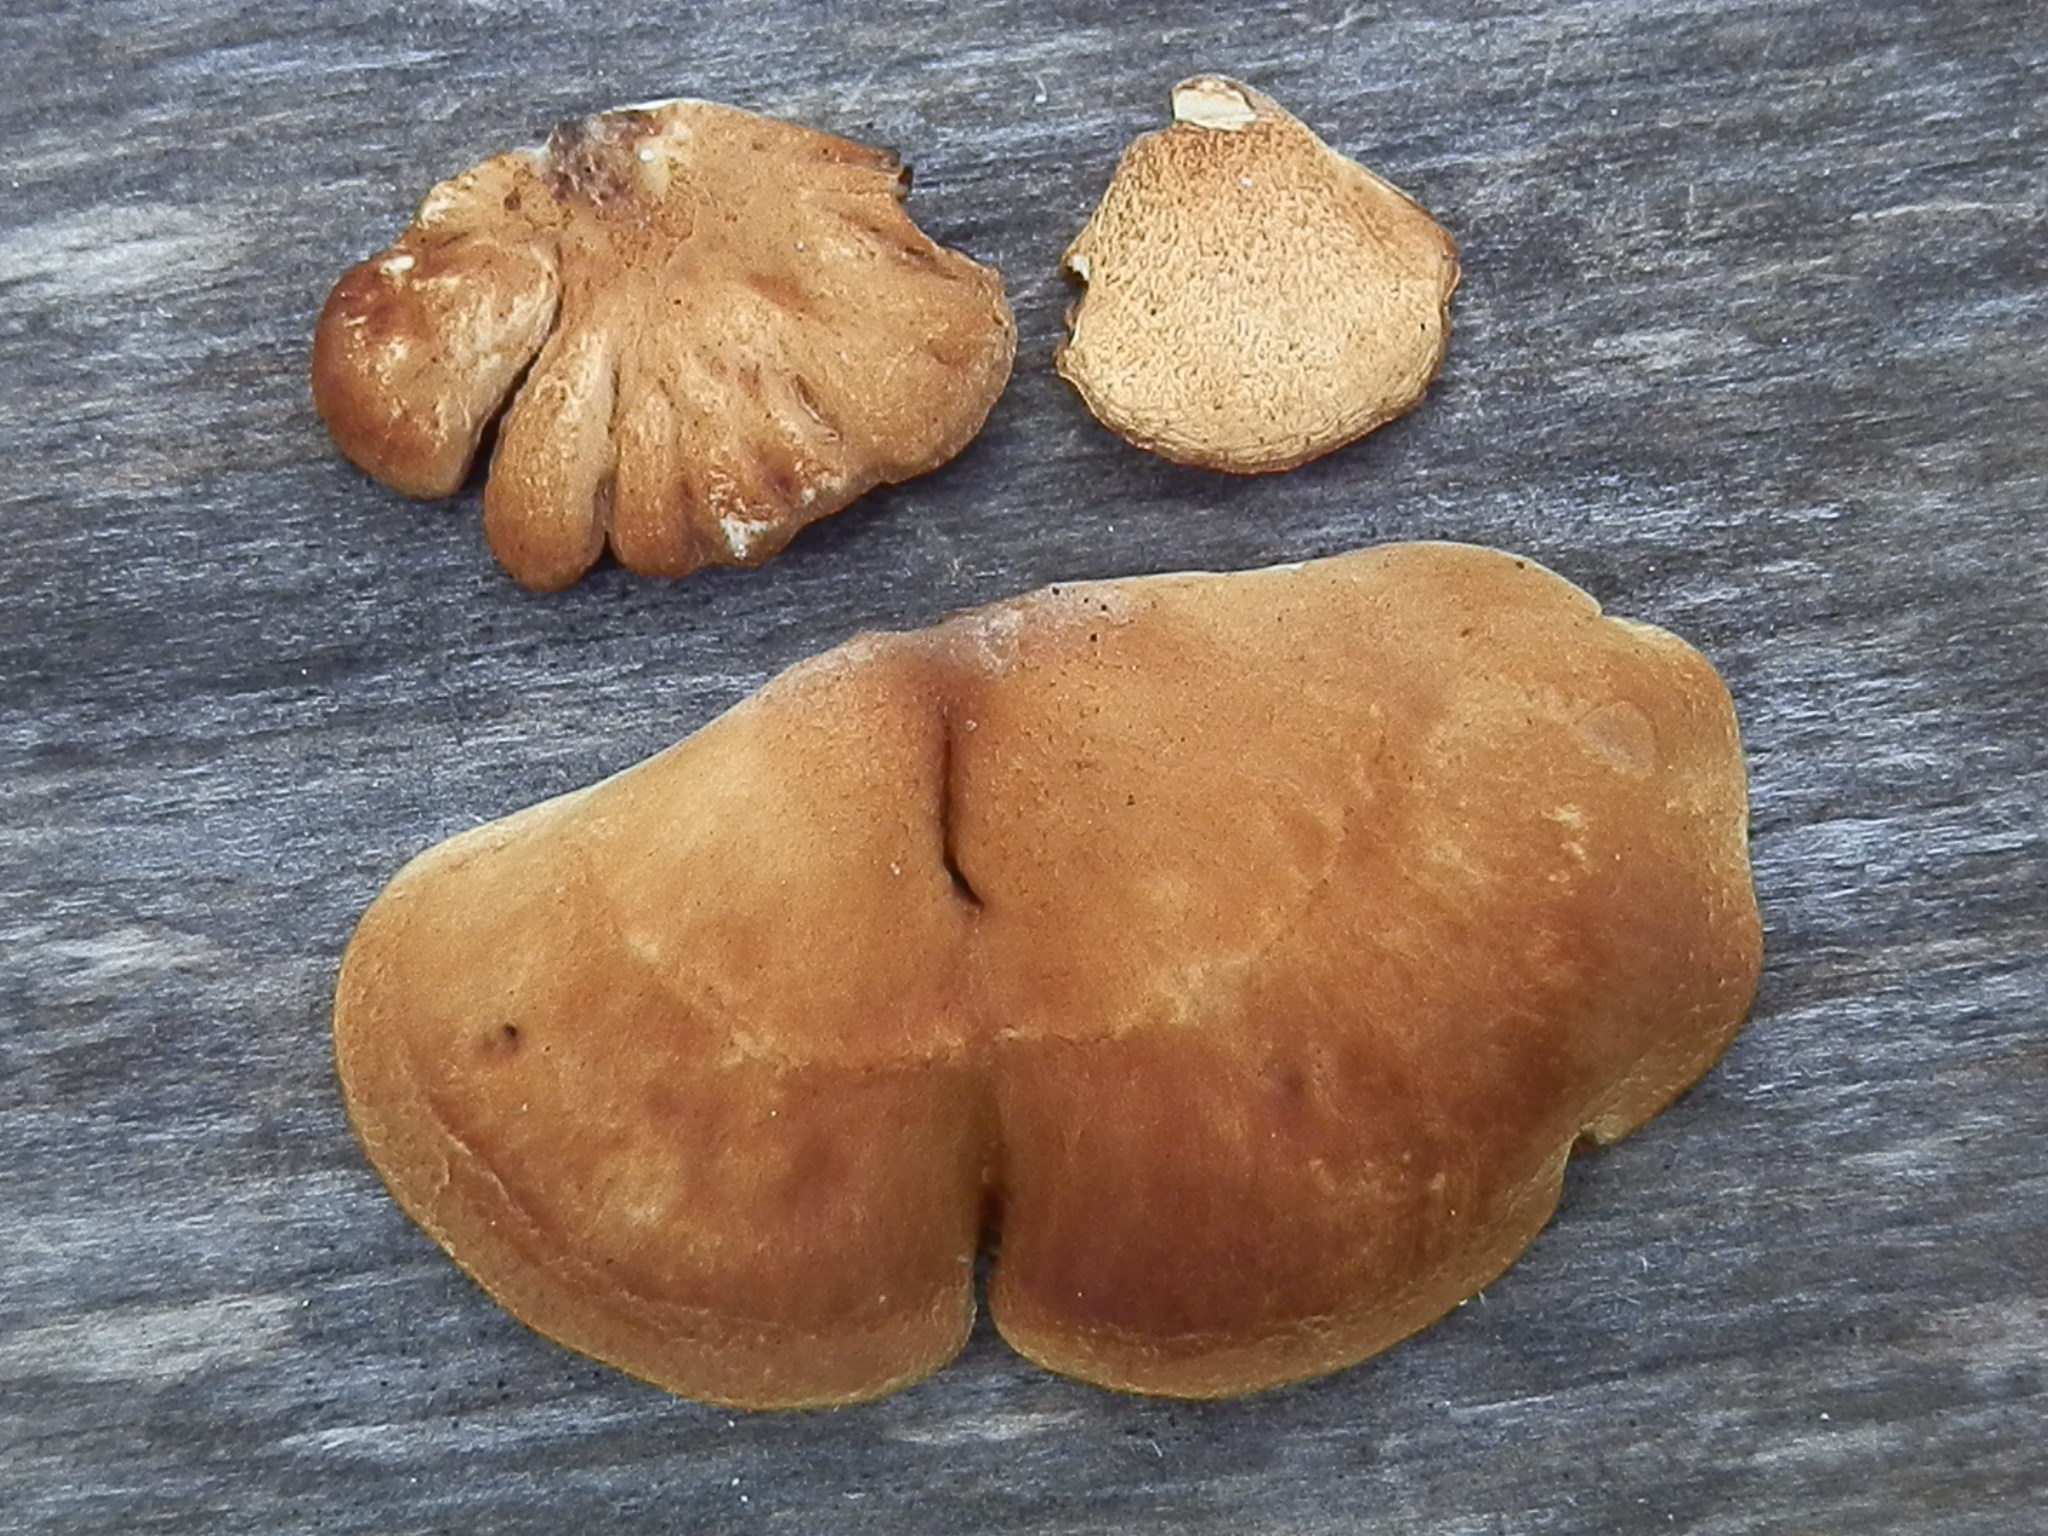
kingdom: Fungi
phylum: Basidiomycota
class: Agaricomycetes
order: Agaricales
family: Crepidotaceae
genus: Crepidotus
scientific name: Crepidotus mollis
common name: Peeling oysterling
